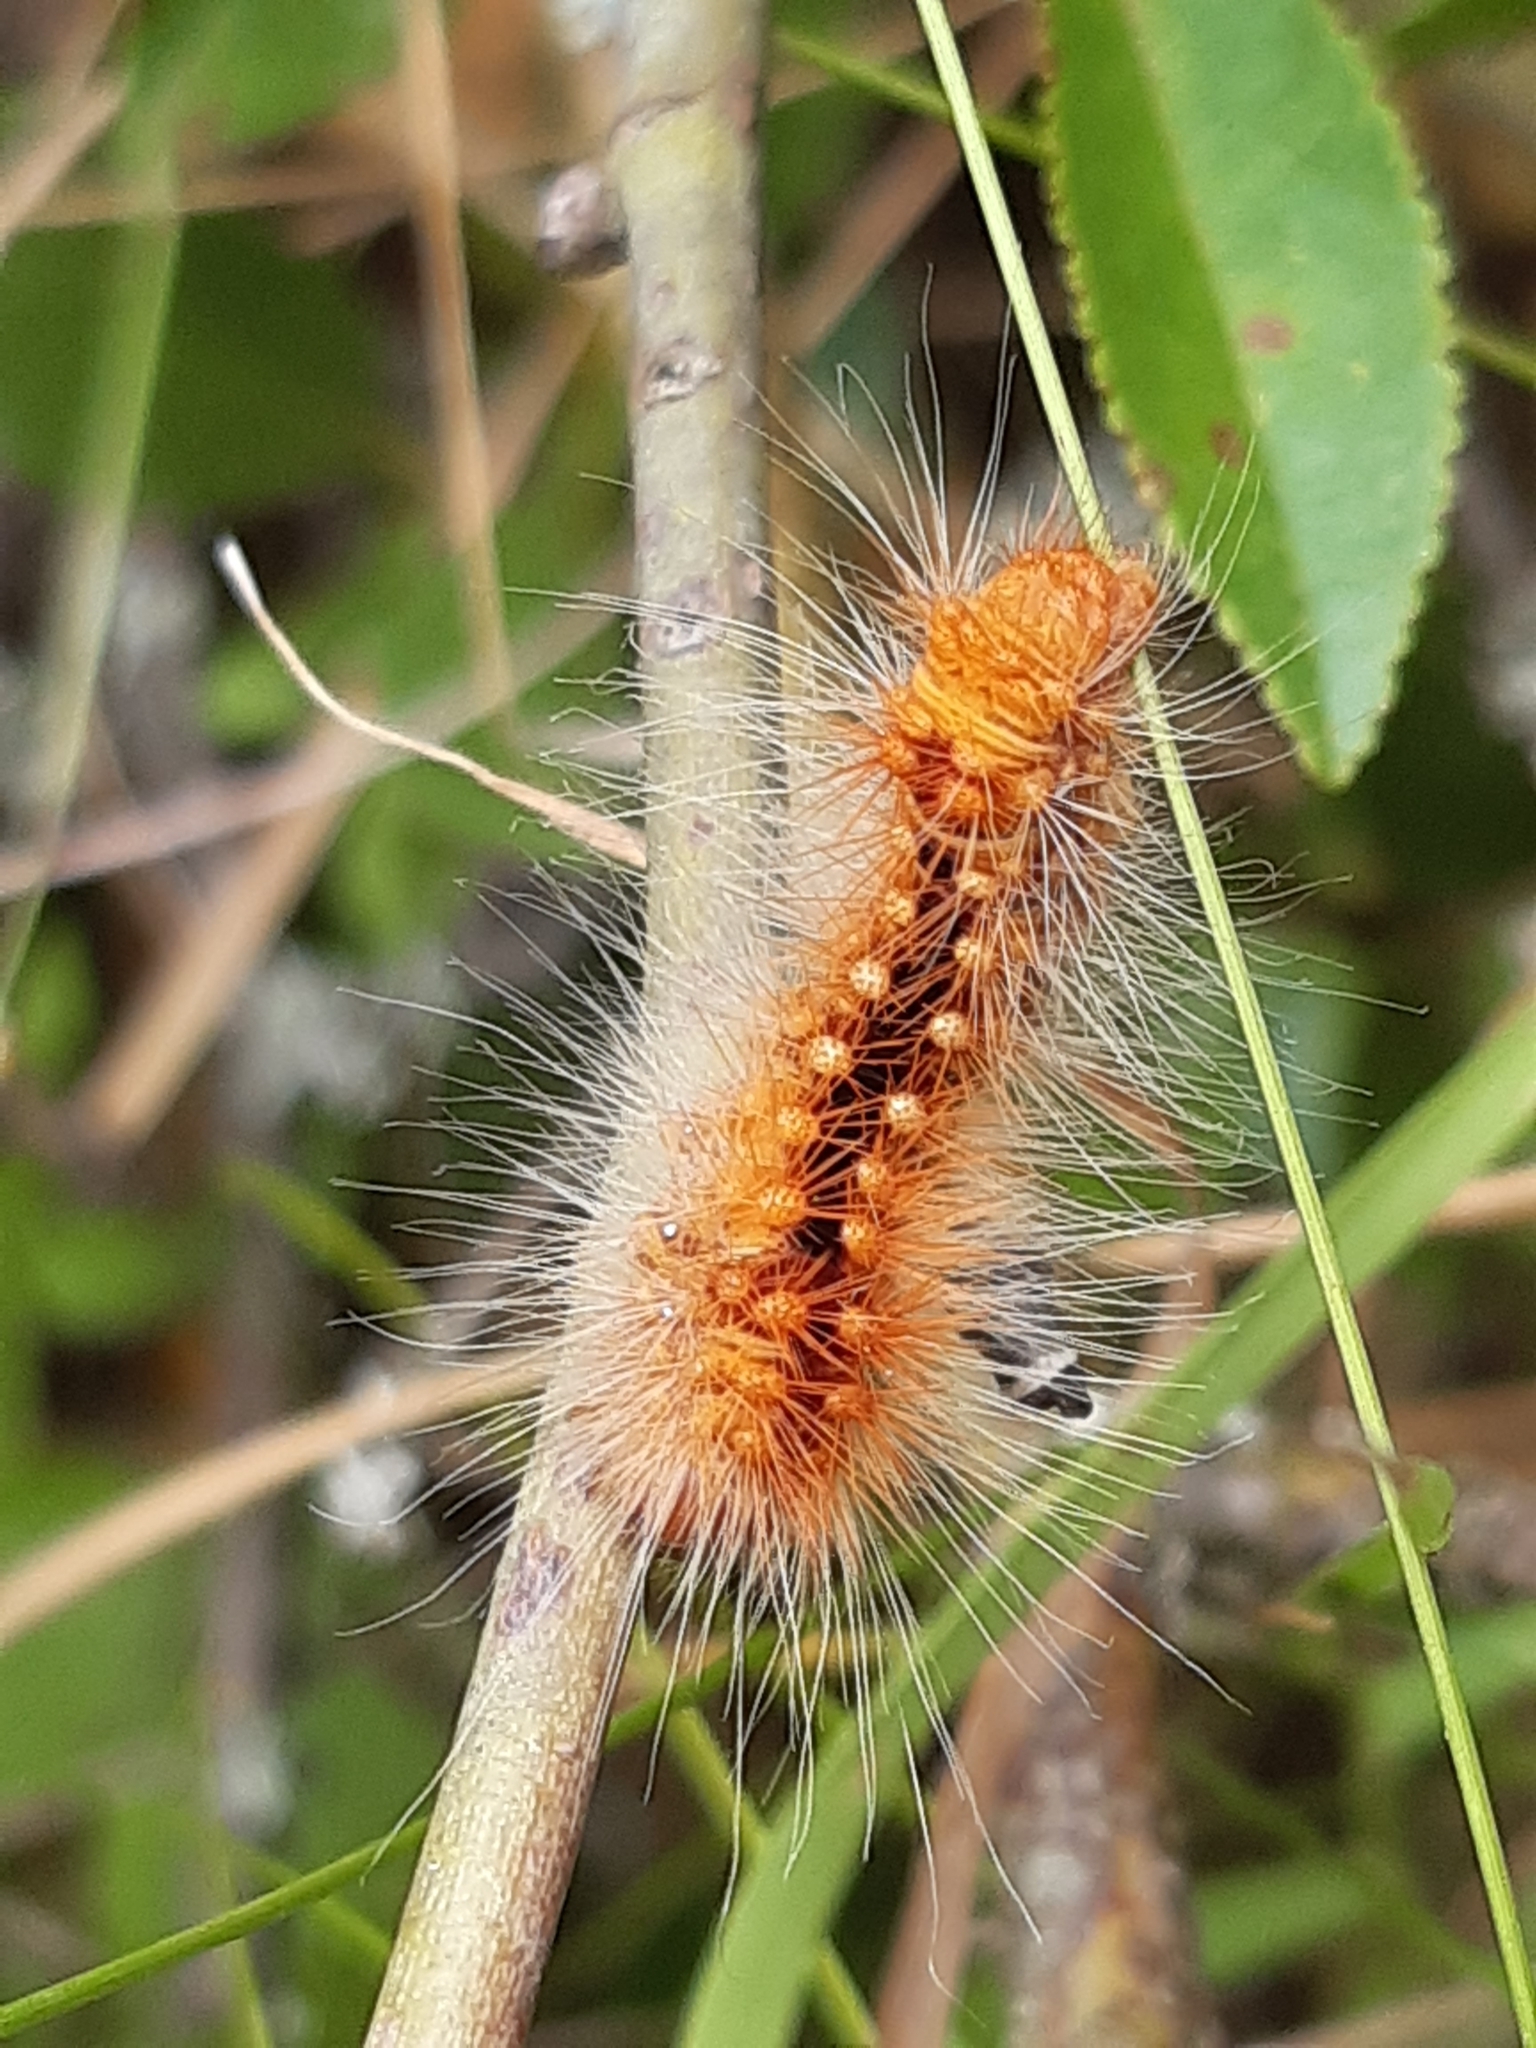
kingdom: Animalia
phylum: Arthropoda
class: Insecta
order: Lepidoptera
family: Noctuidae
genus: Acronicta
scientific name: Acronicta auricoma
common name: Scarce dagger
